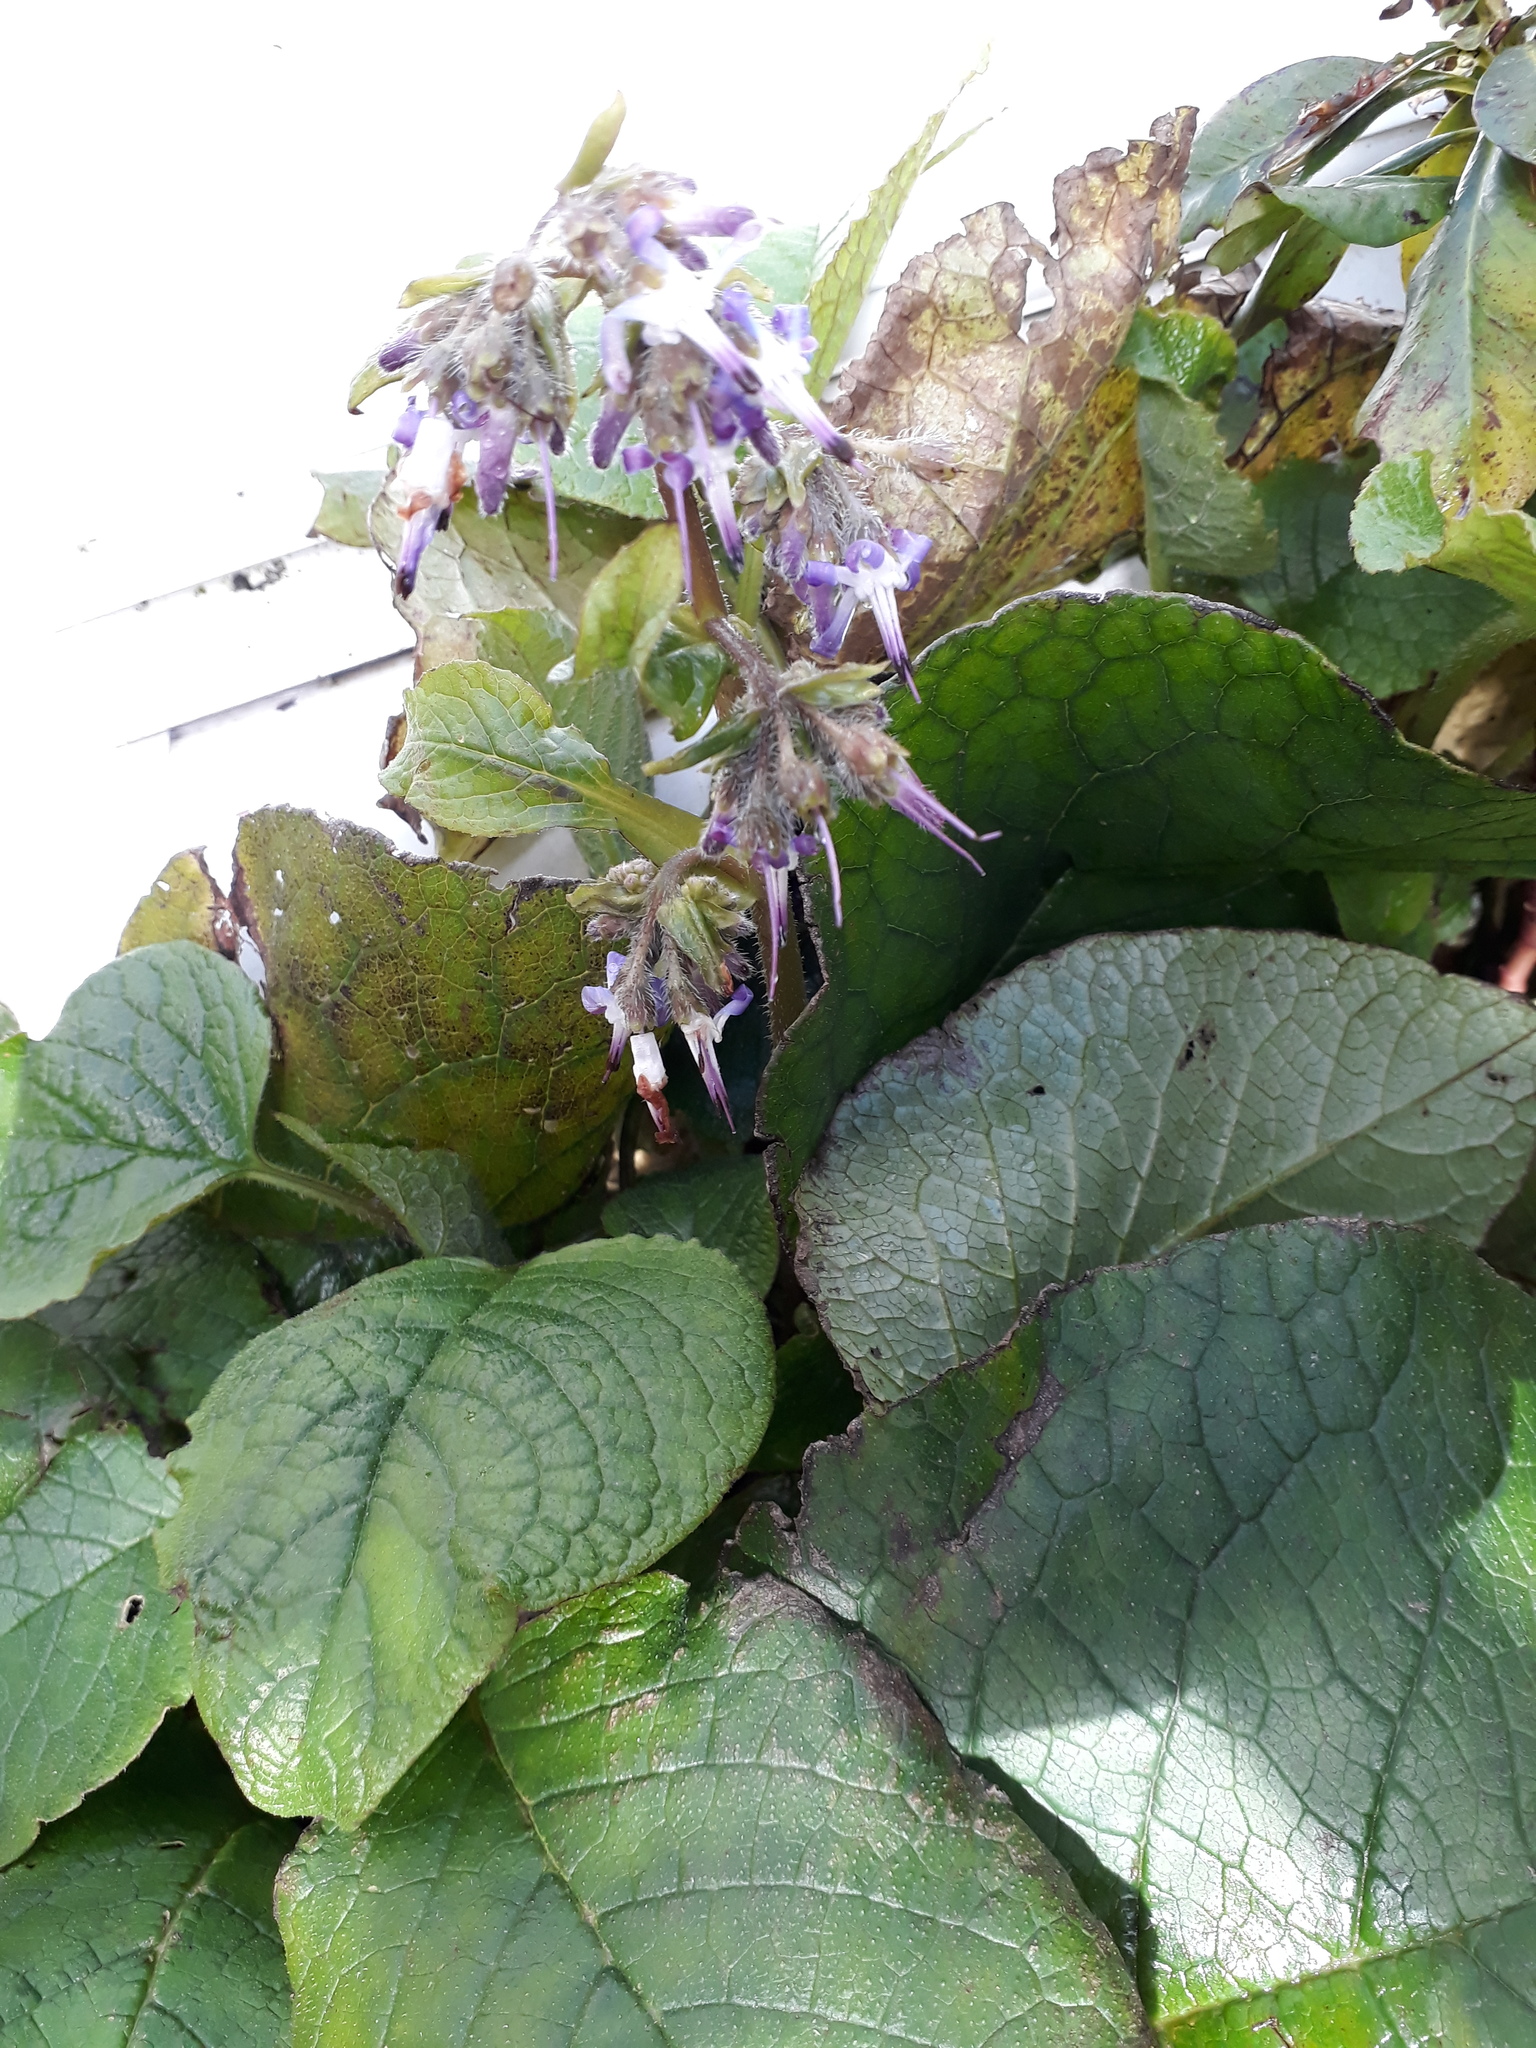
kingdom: Plantae
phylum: Tracheophyta
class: Magnoliopsida
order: Boraginales
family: Boraginaceae
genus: Trachystemon
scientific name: Trachystemon orientale
